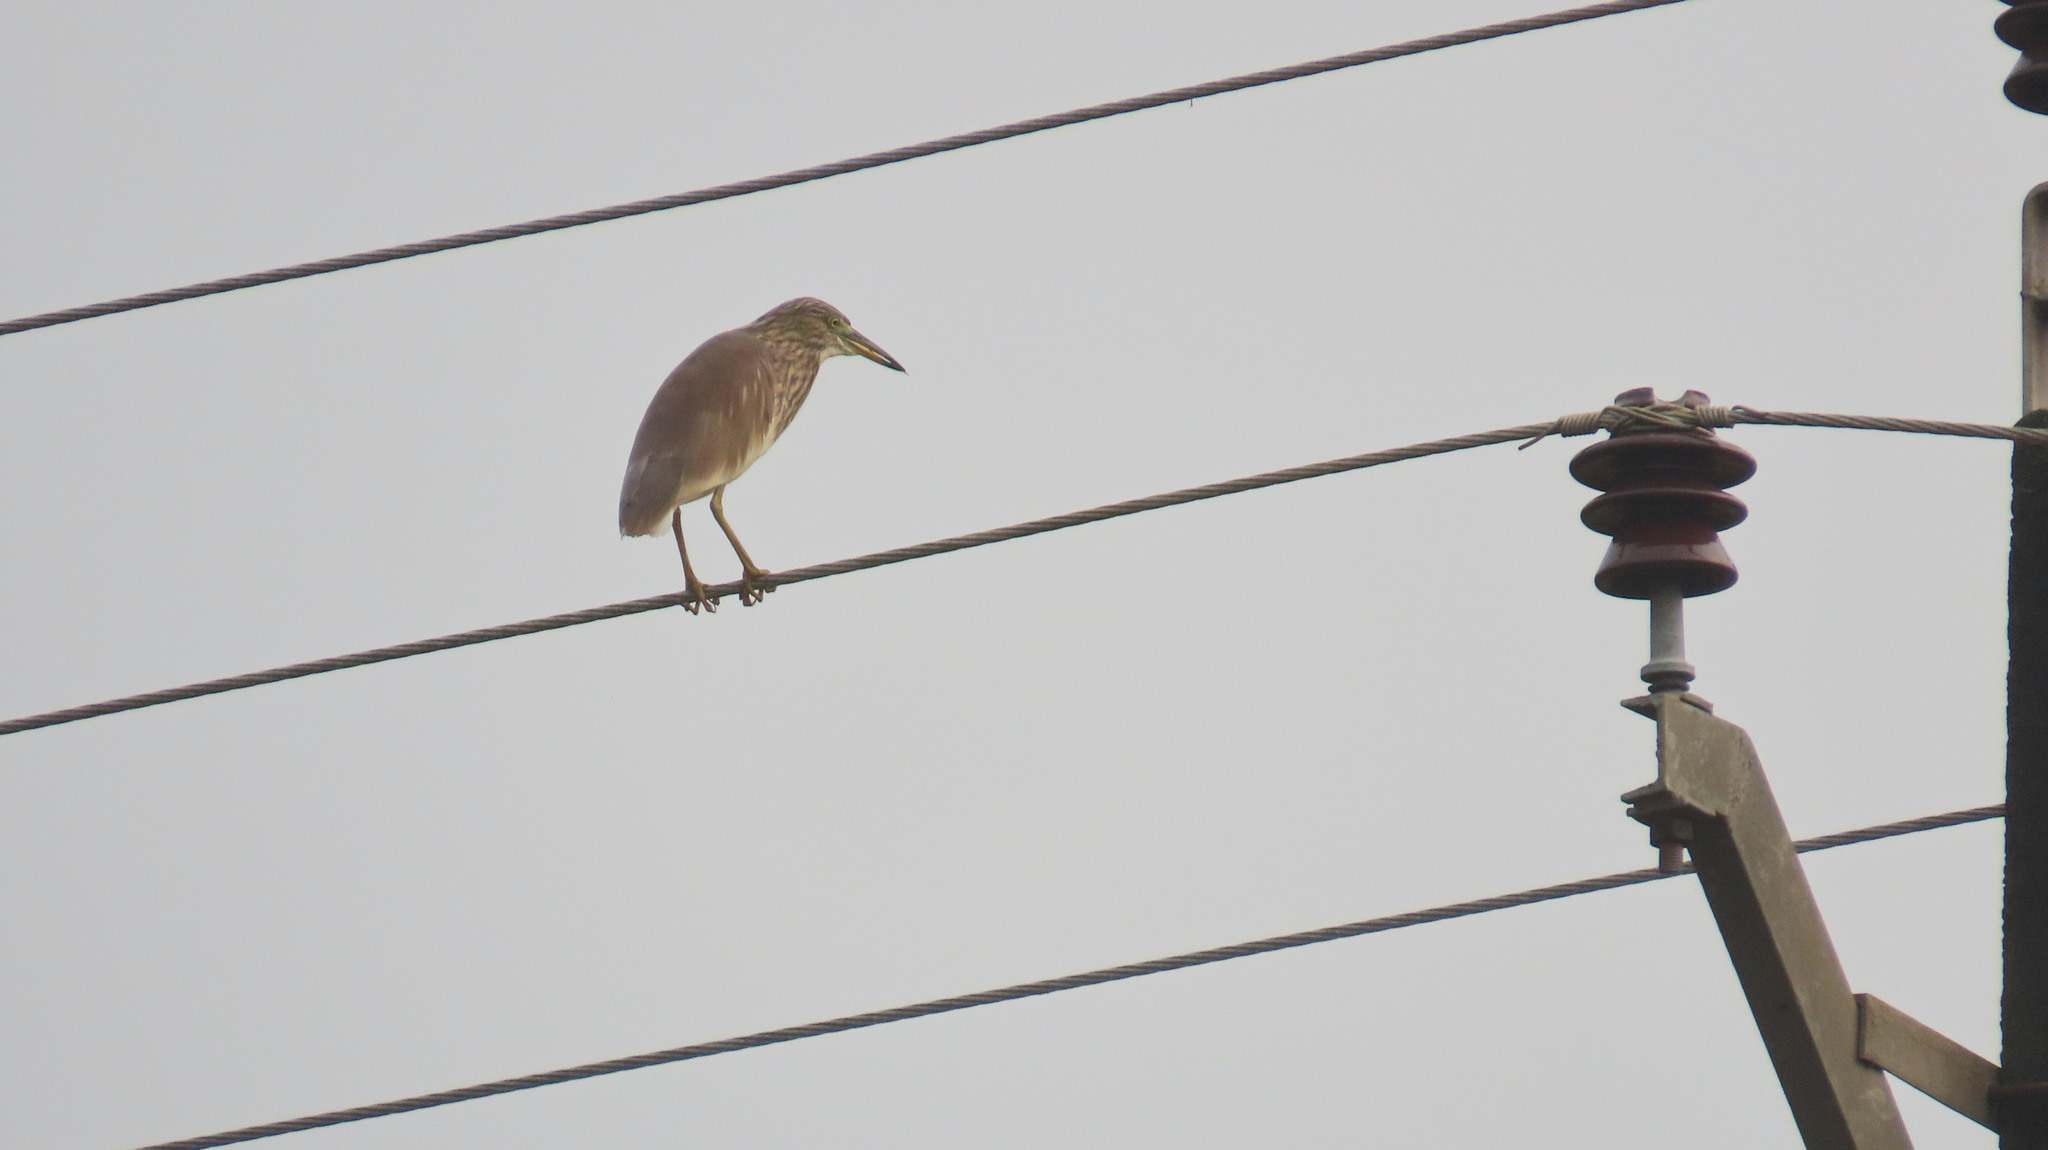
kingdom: Animalia
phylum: Chordata
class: Aves
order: Pelecaniformes
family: Ardeidae
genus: Ardeola
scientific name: Ardeola grayii
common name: Indian pond heron
